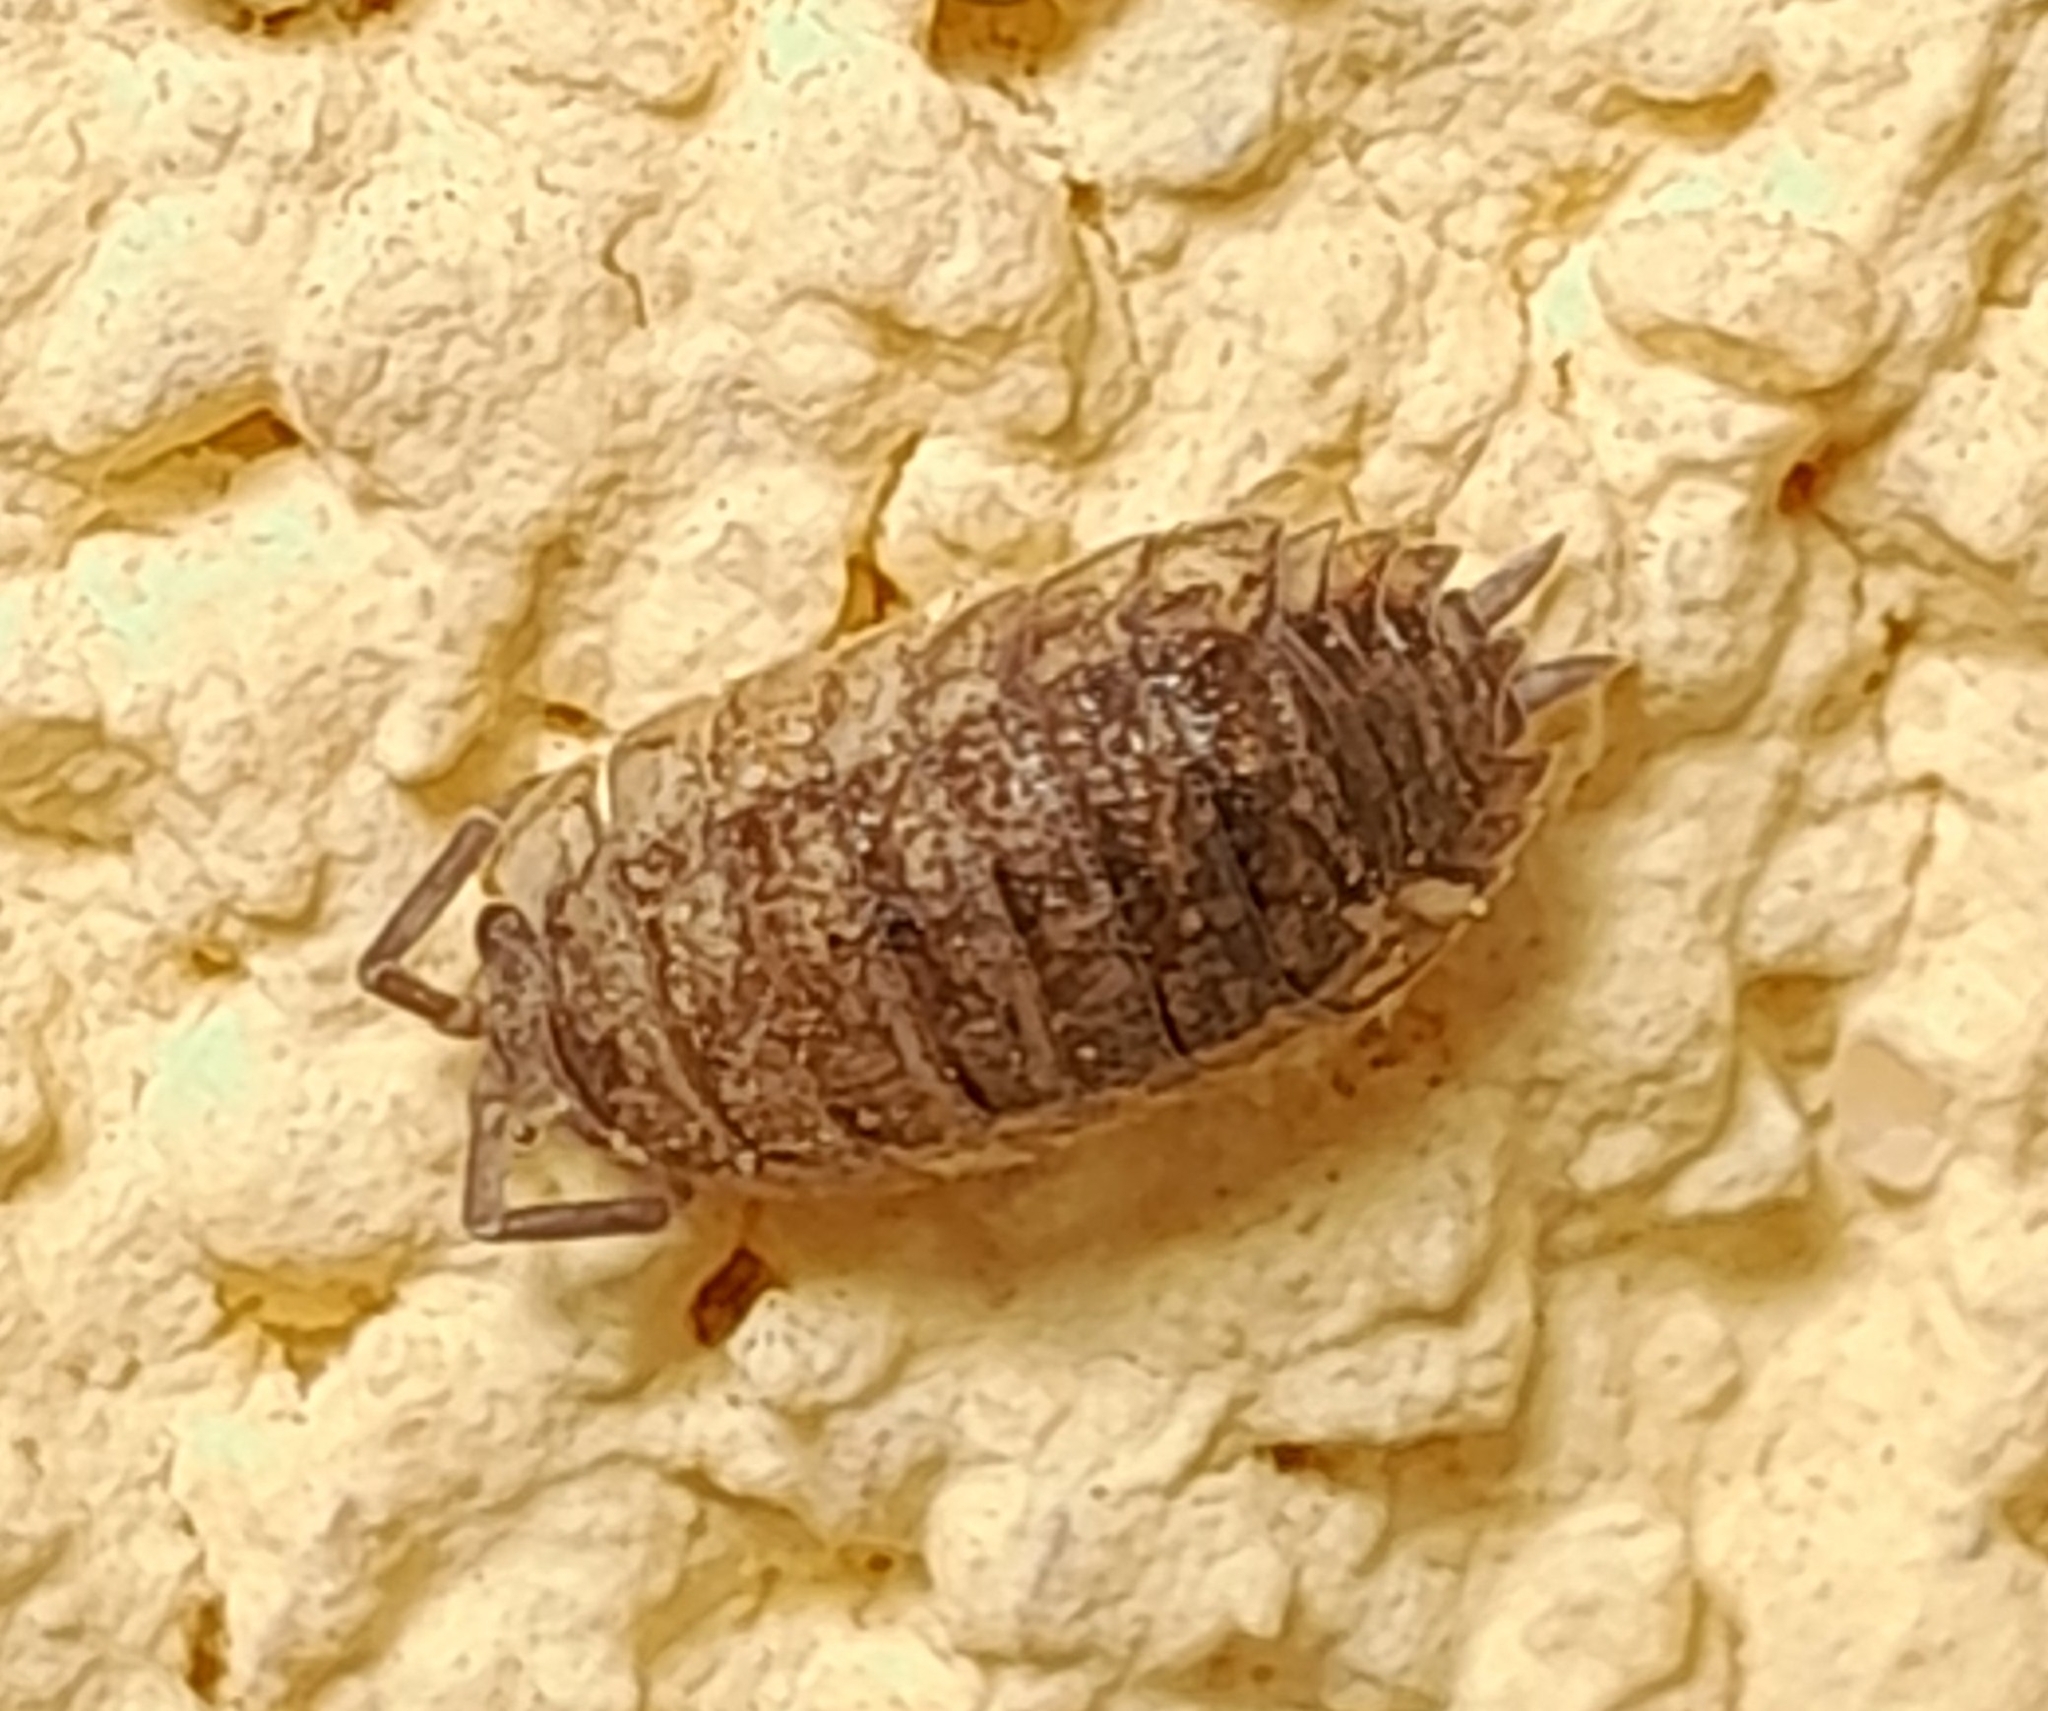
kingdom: Animalia
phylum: Arthropoda
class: Malacostraca
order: Isopoda
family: Porcellionidae
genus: Porcellio
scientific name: Porcellio scaber
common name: Common rough woodlouse
